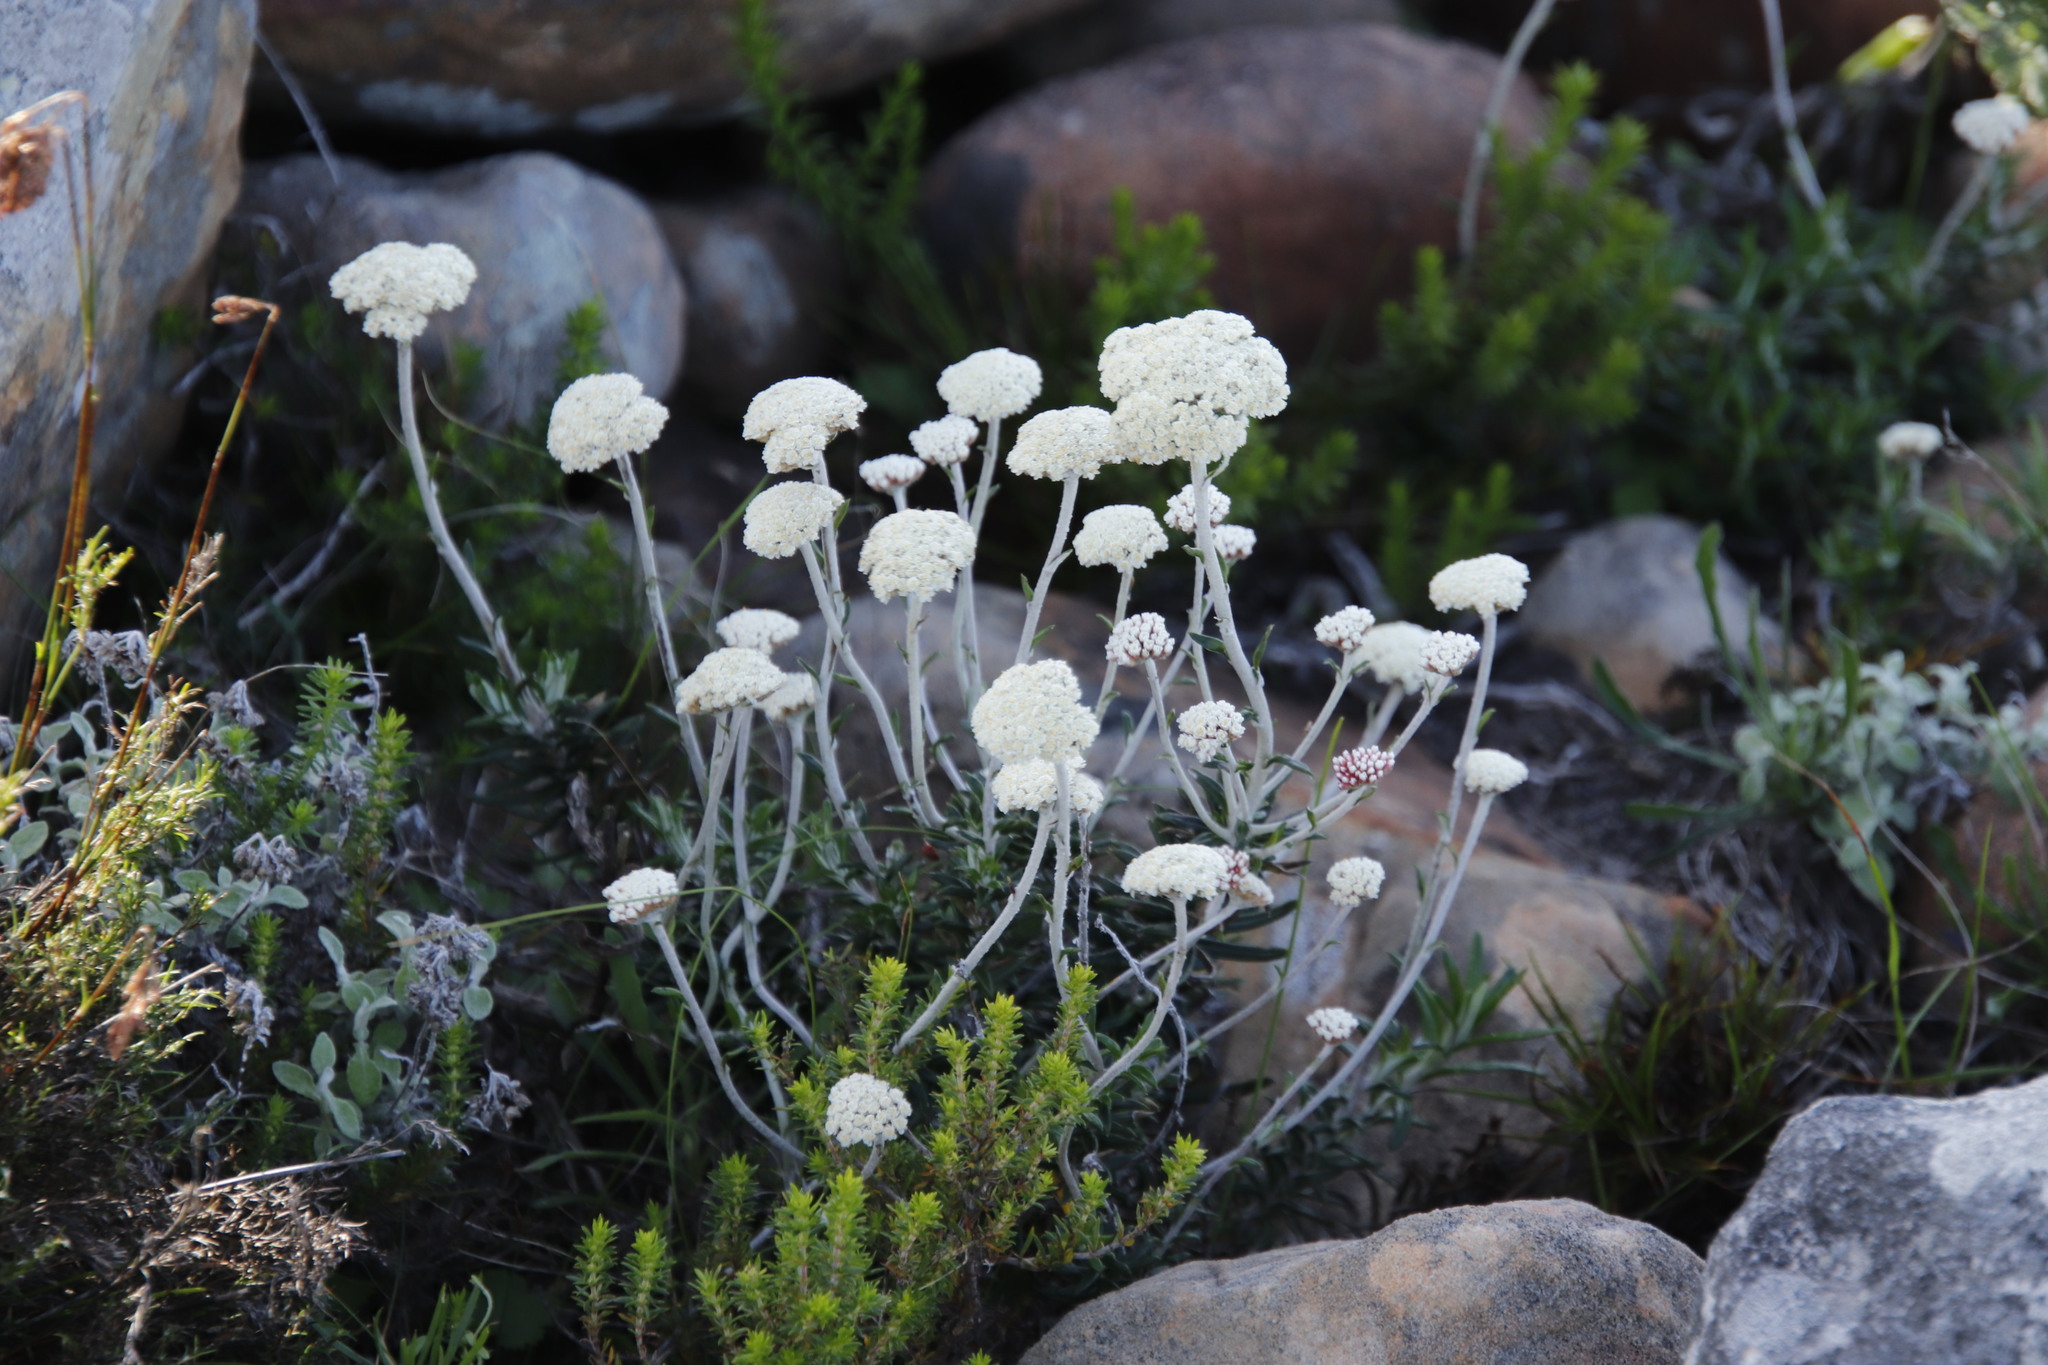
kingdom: Plantae
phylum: Tracheophyta
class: Magnoliopsida
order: Asterales
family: Asteraceae
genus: Anaxeton
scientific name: Anaxeton laeve
